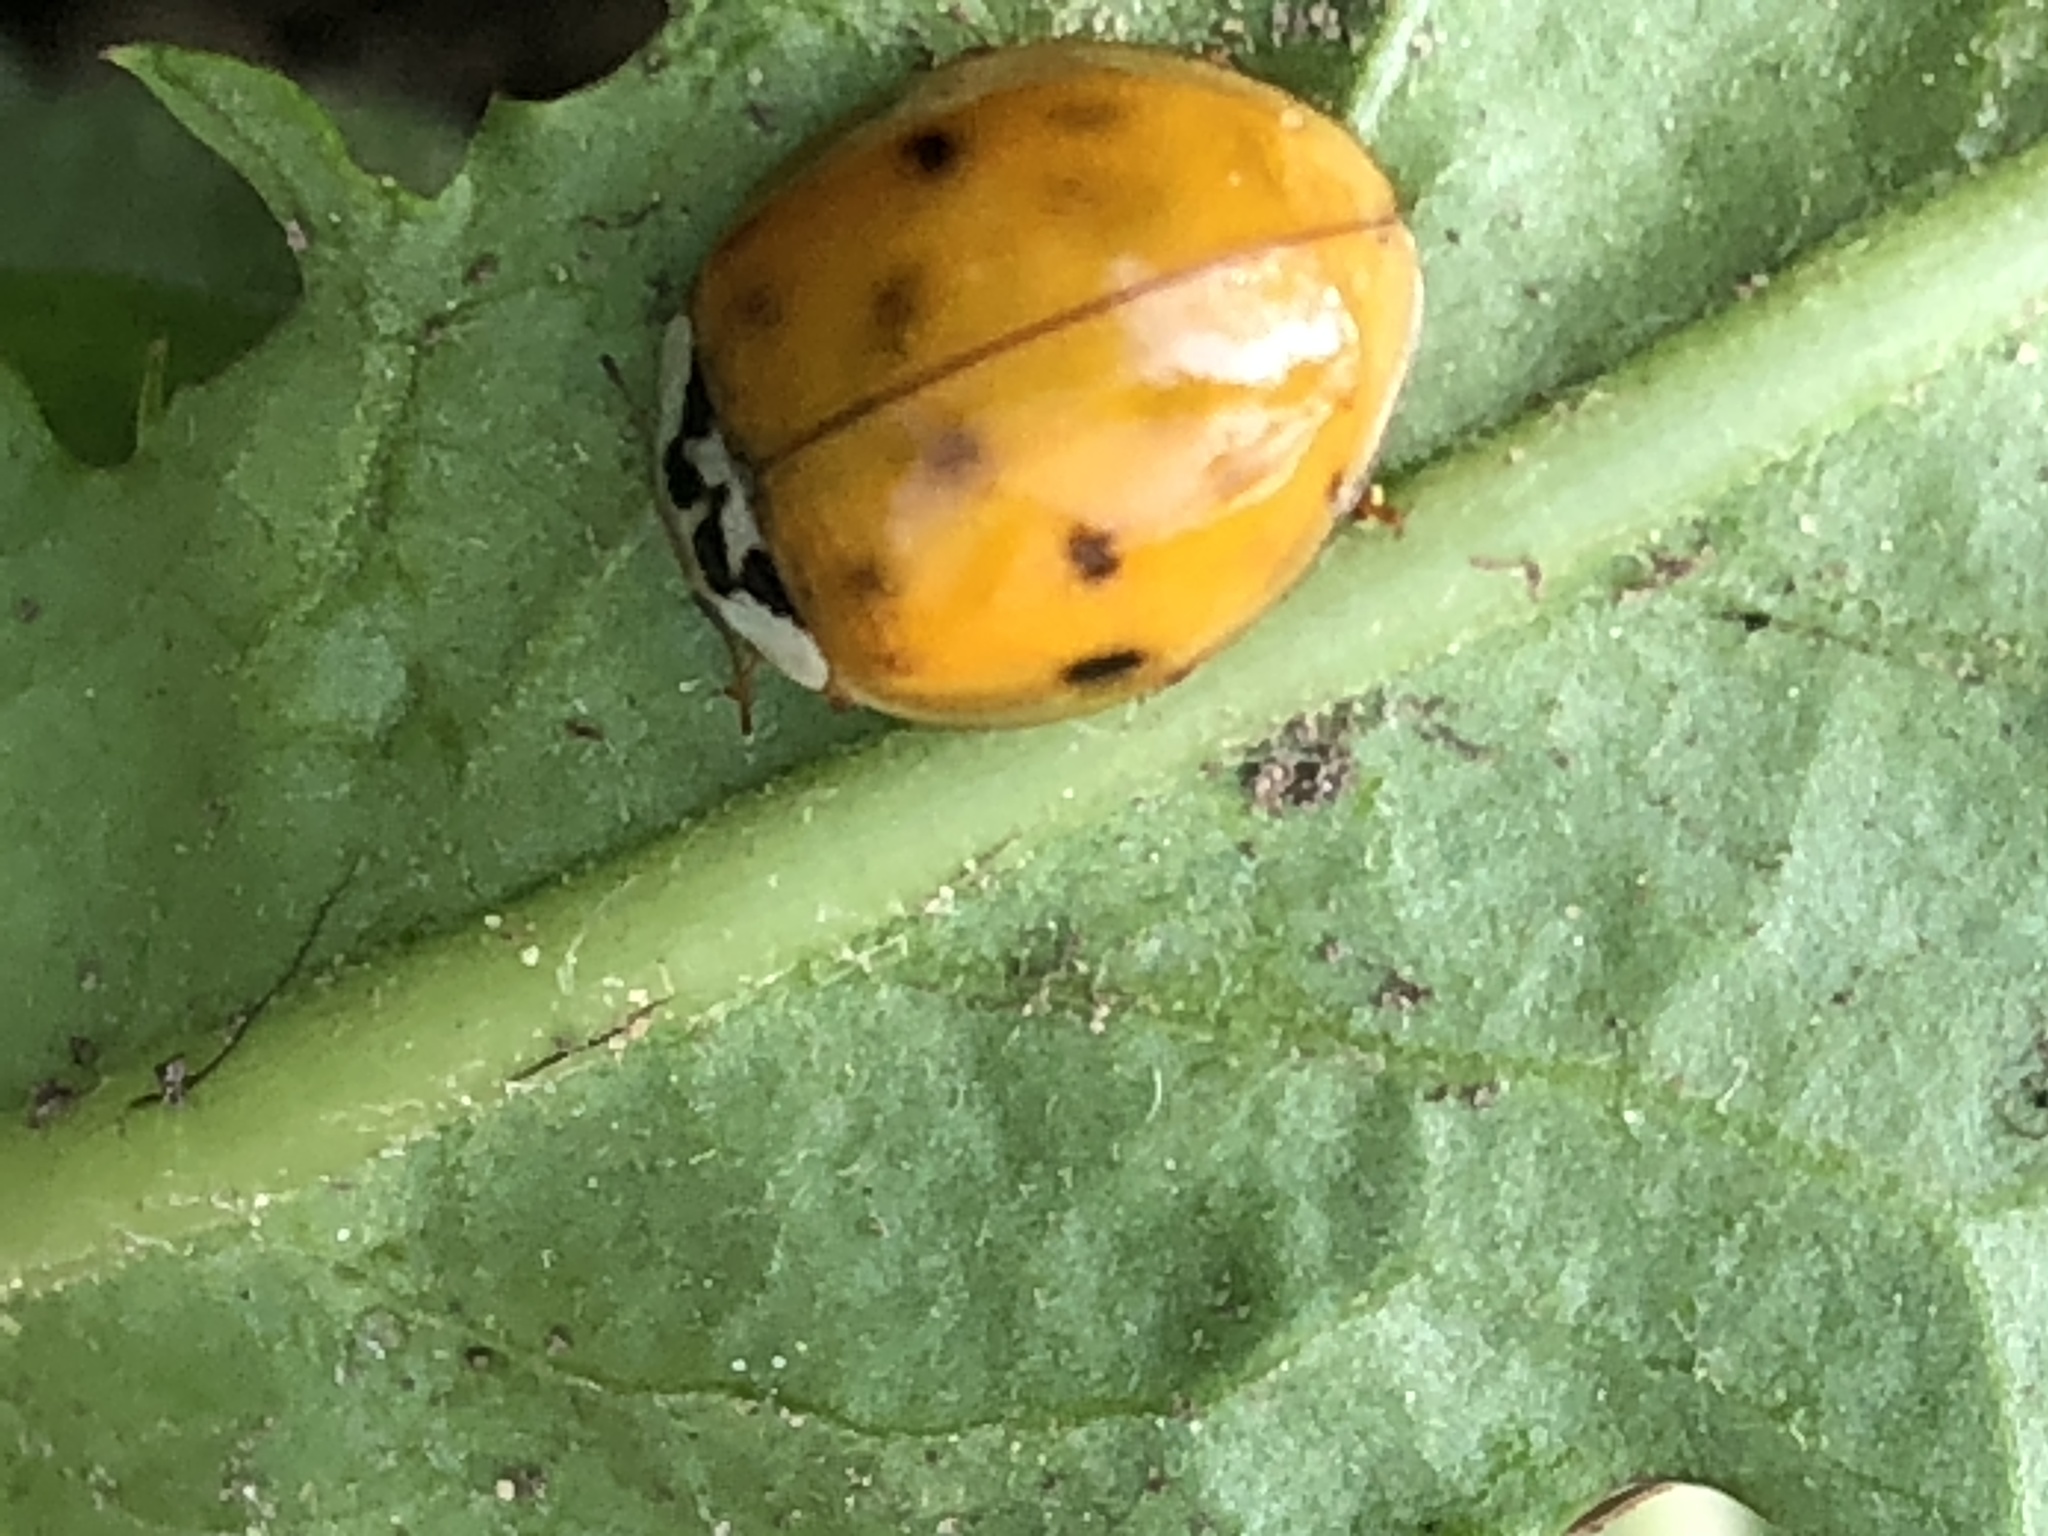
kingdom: Animalia
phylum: Arthropoda
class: Insecta
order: Coleoptera
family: Coccinellidae
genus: Harmonia
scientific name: Harmonia axyridis
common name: Harlequin ladybird
